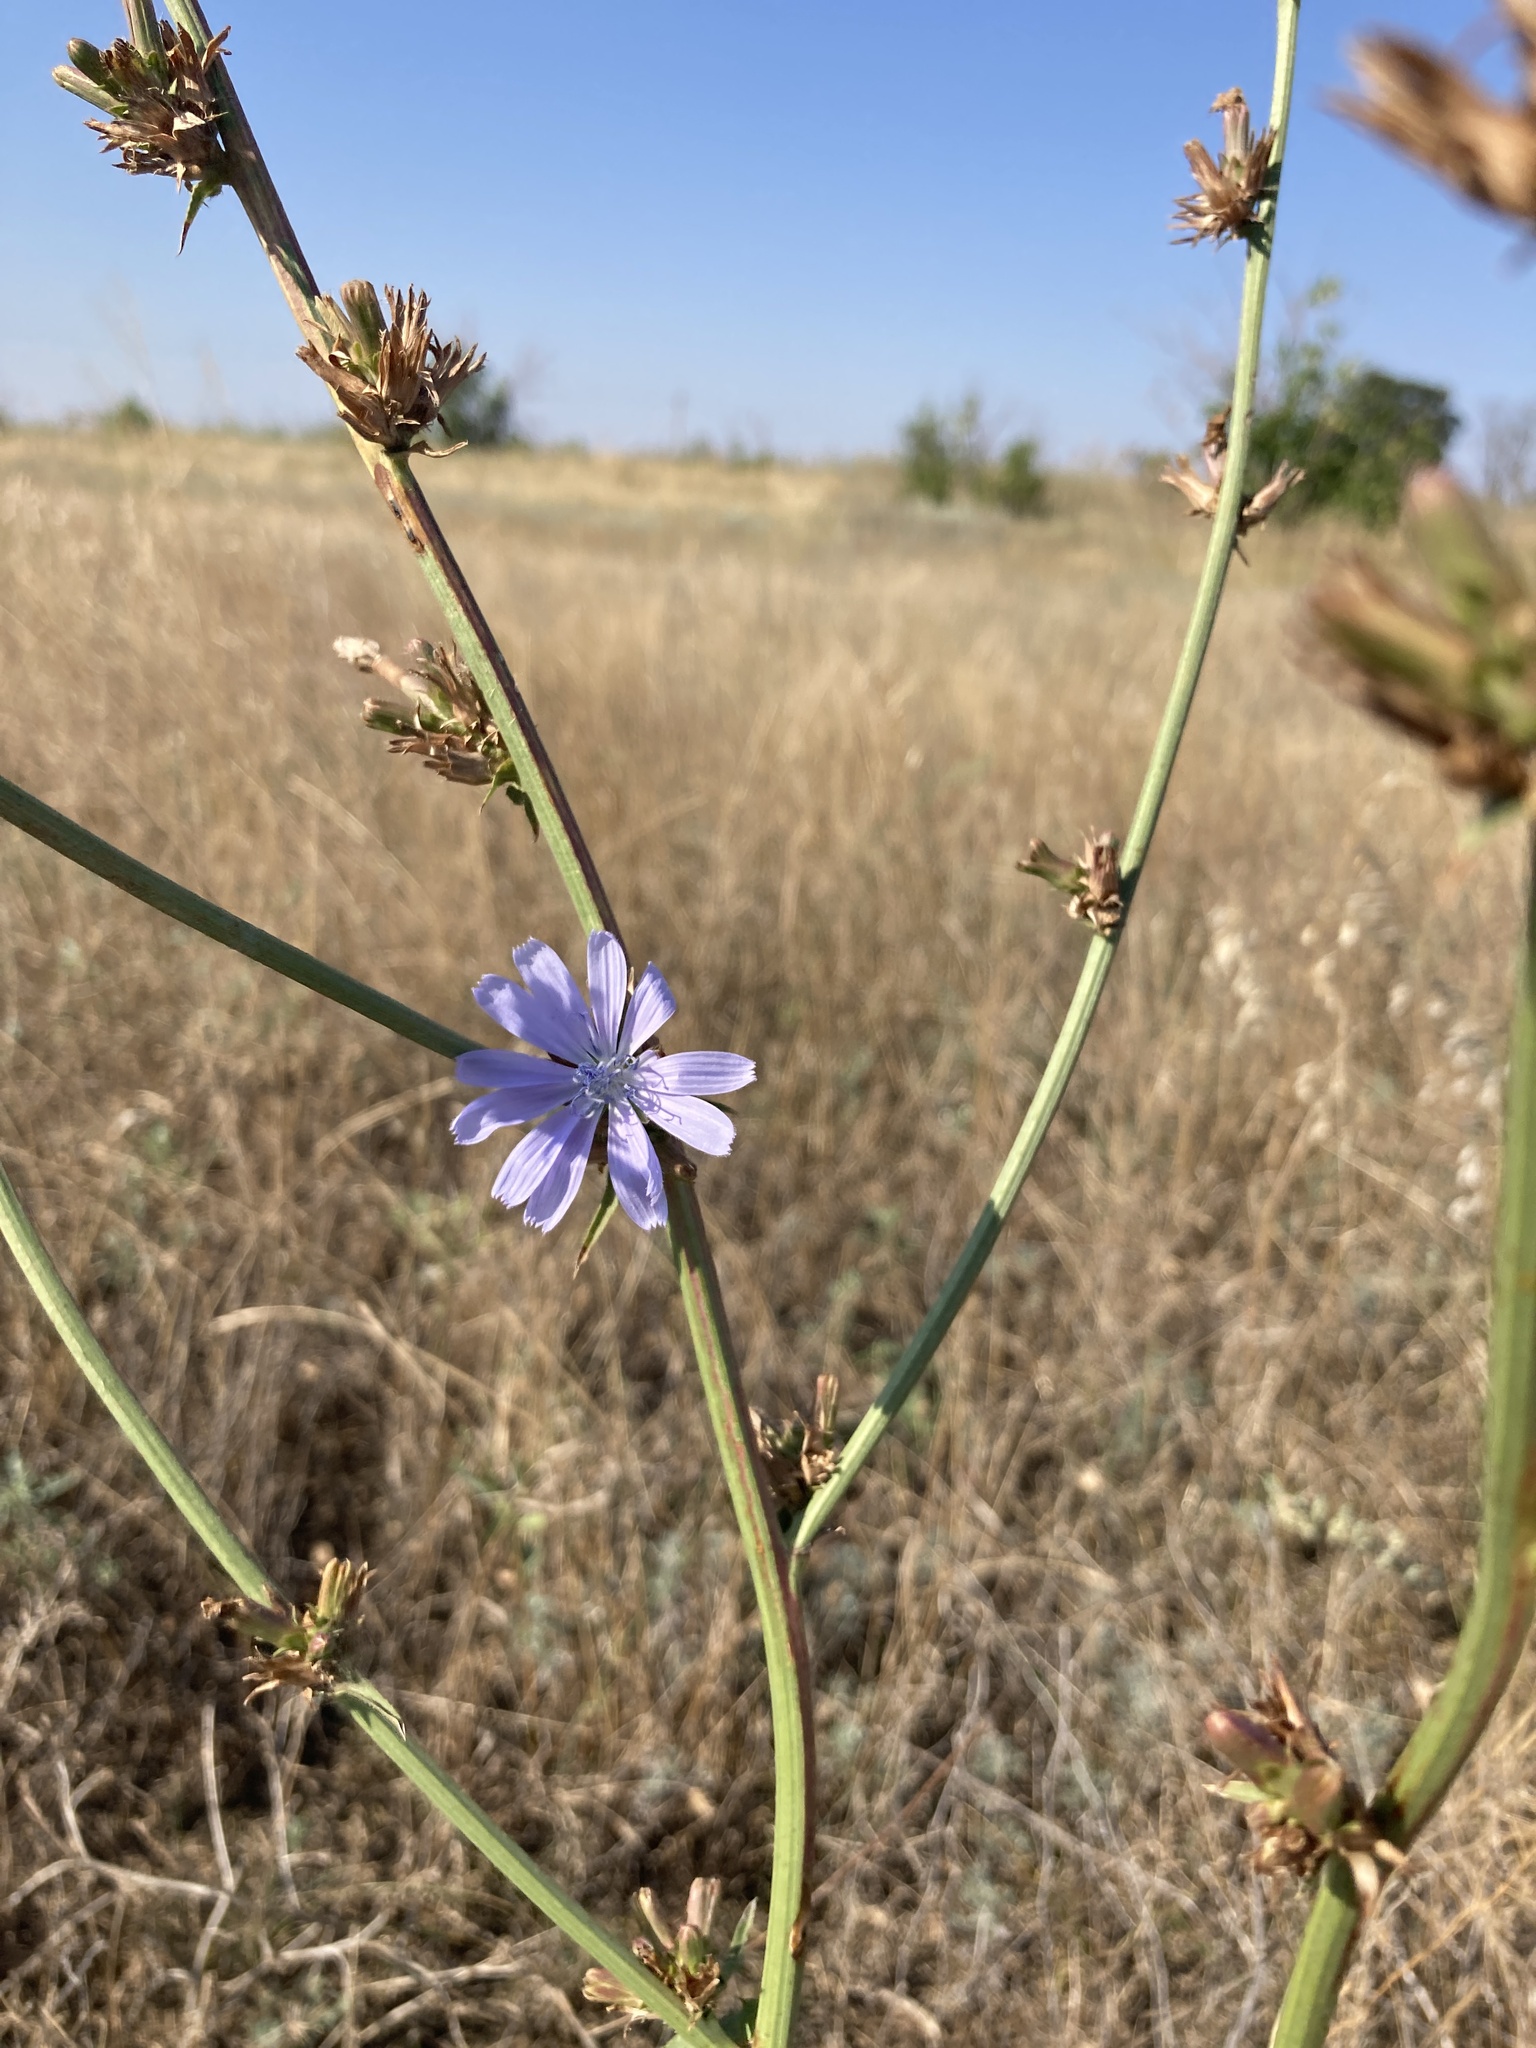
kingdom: Plantae
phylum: Tracheophyta
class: Magnoliopsida
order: Asterales
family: Asteraceae
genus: Cichorium
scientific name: Cichorium intybus
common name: Chicory
